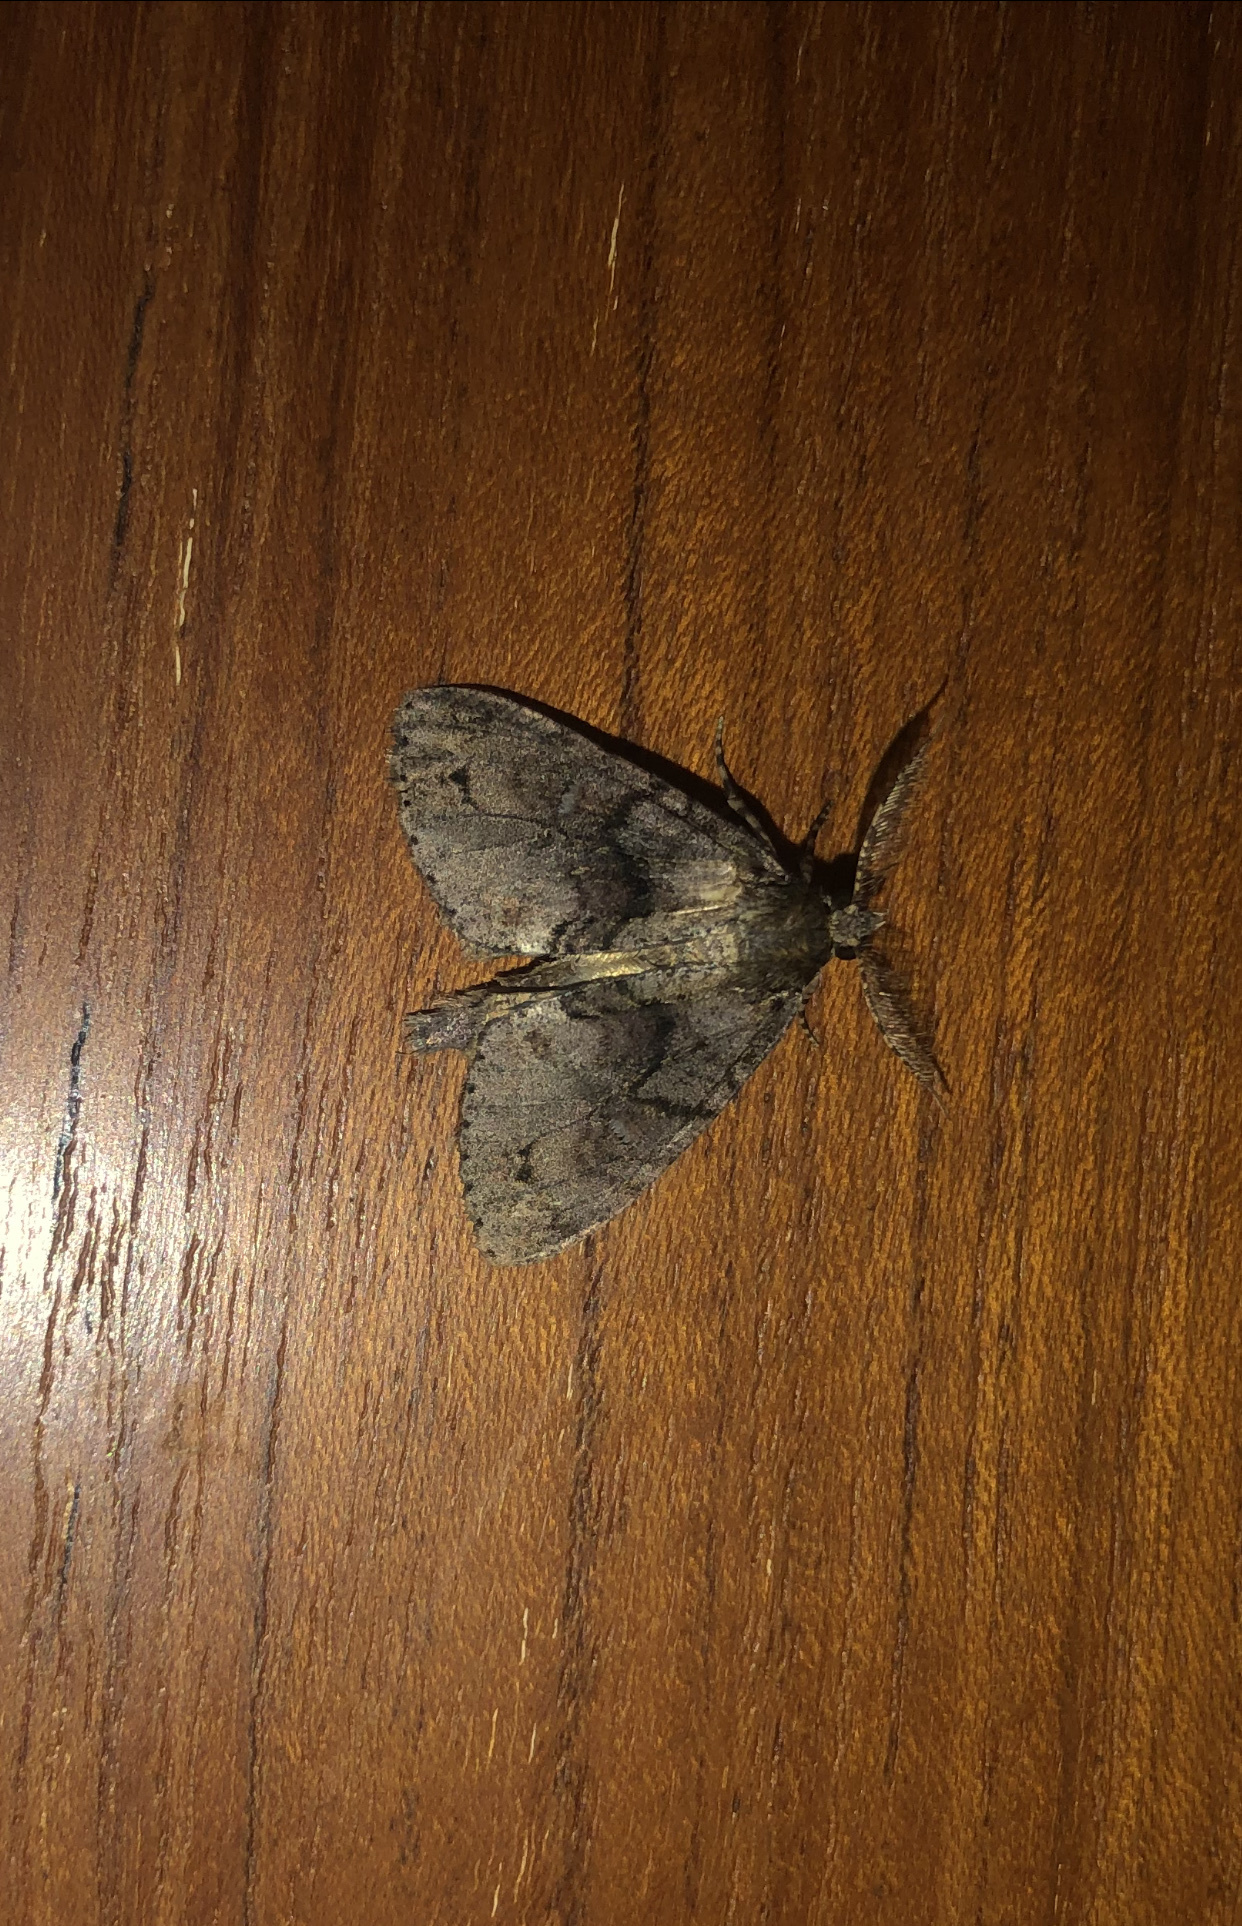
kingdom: Animalia
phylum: Arthropoda
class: Insecta
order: Lepidoptera
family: Geometridae
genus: Pseudocoremia
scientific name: Pseudocoremia suavis
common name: Common forest looper
